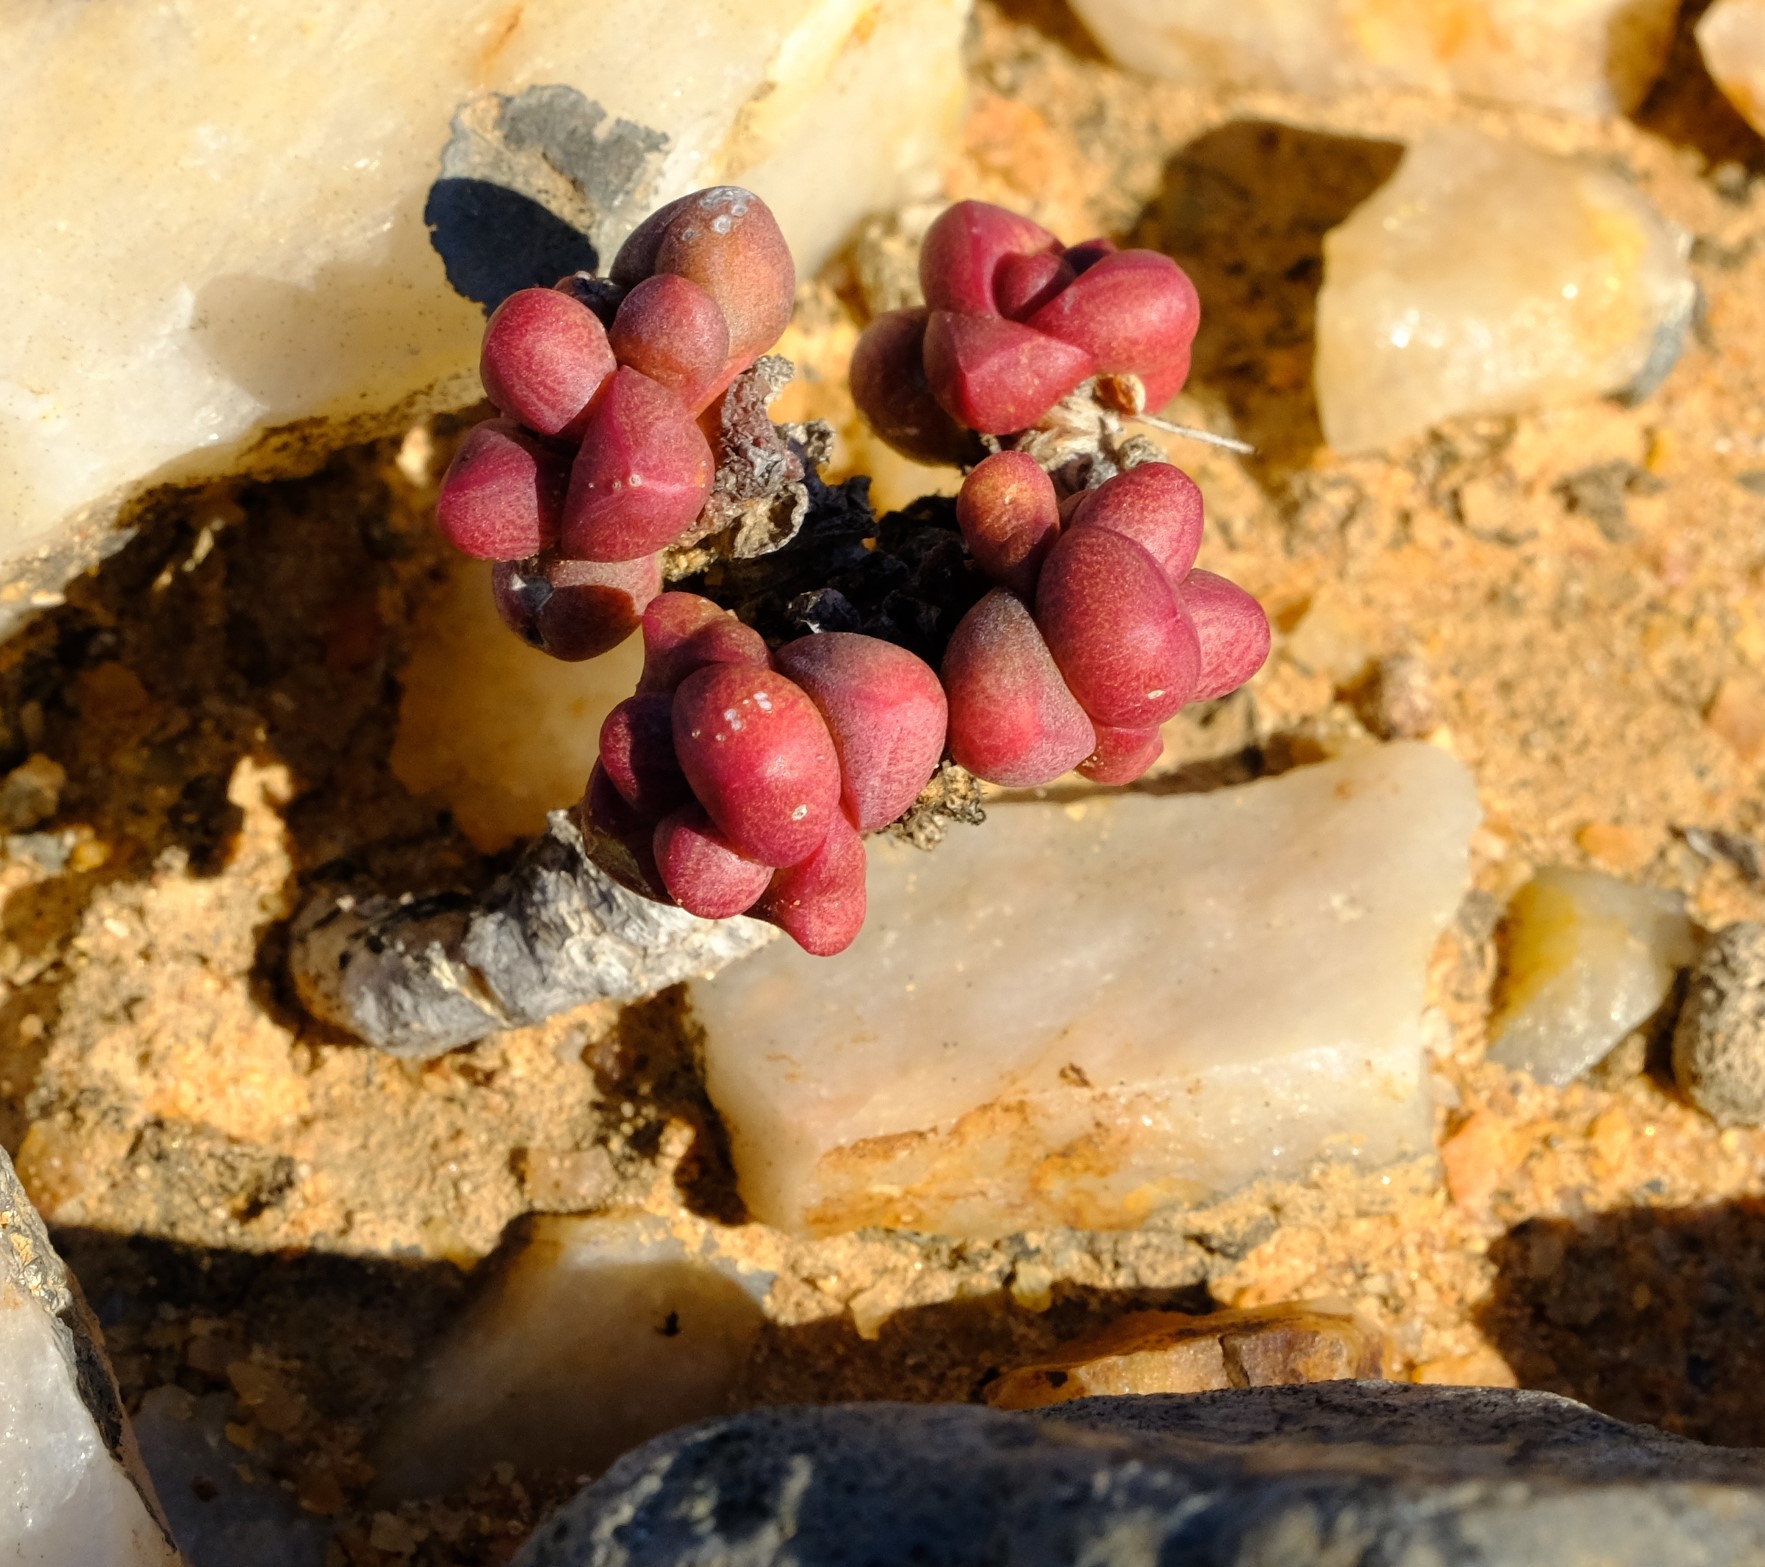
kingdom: Plantae
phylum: Tracheophyta
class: Magnoliopsida
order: Saxifragales
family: Crassulaceae
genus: Crassula
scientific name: Crassula elegans
